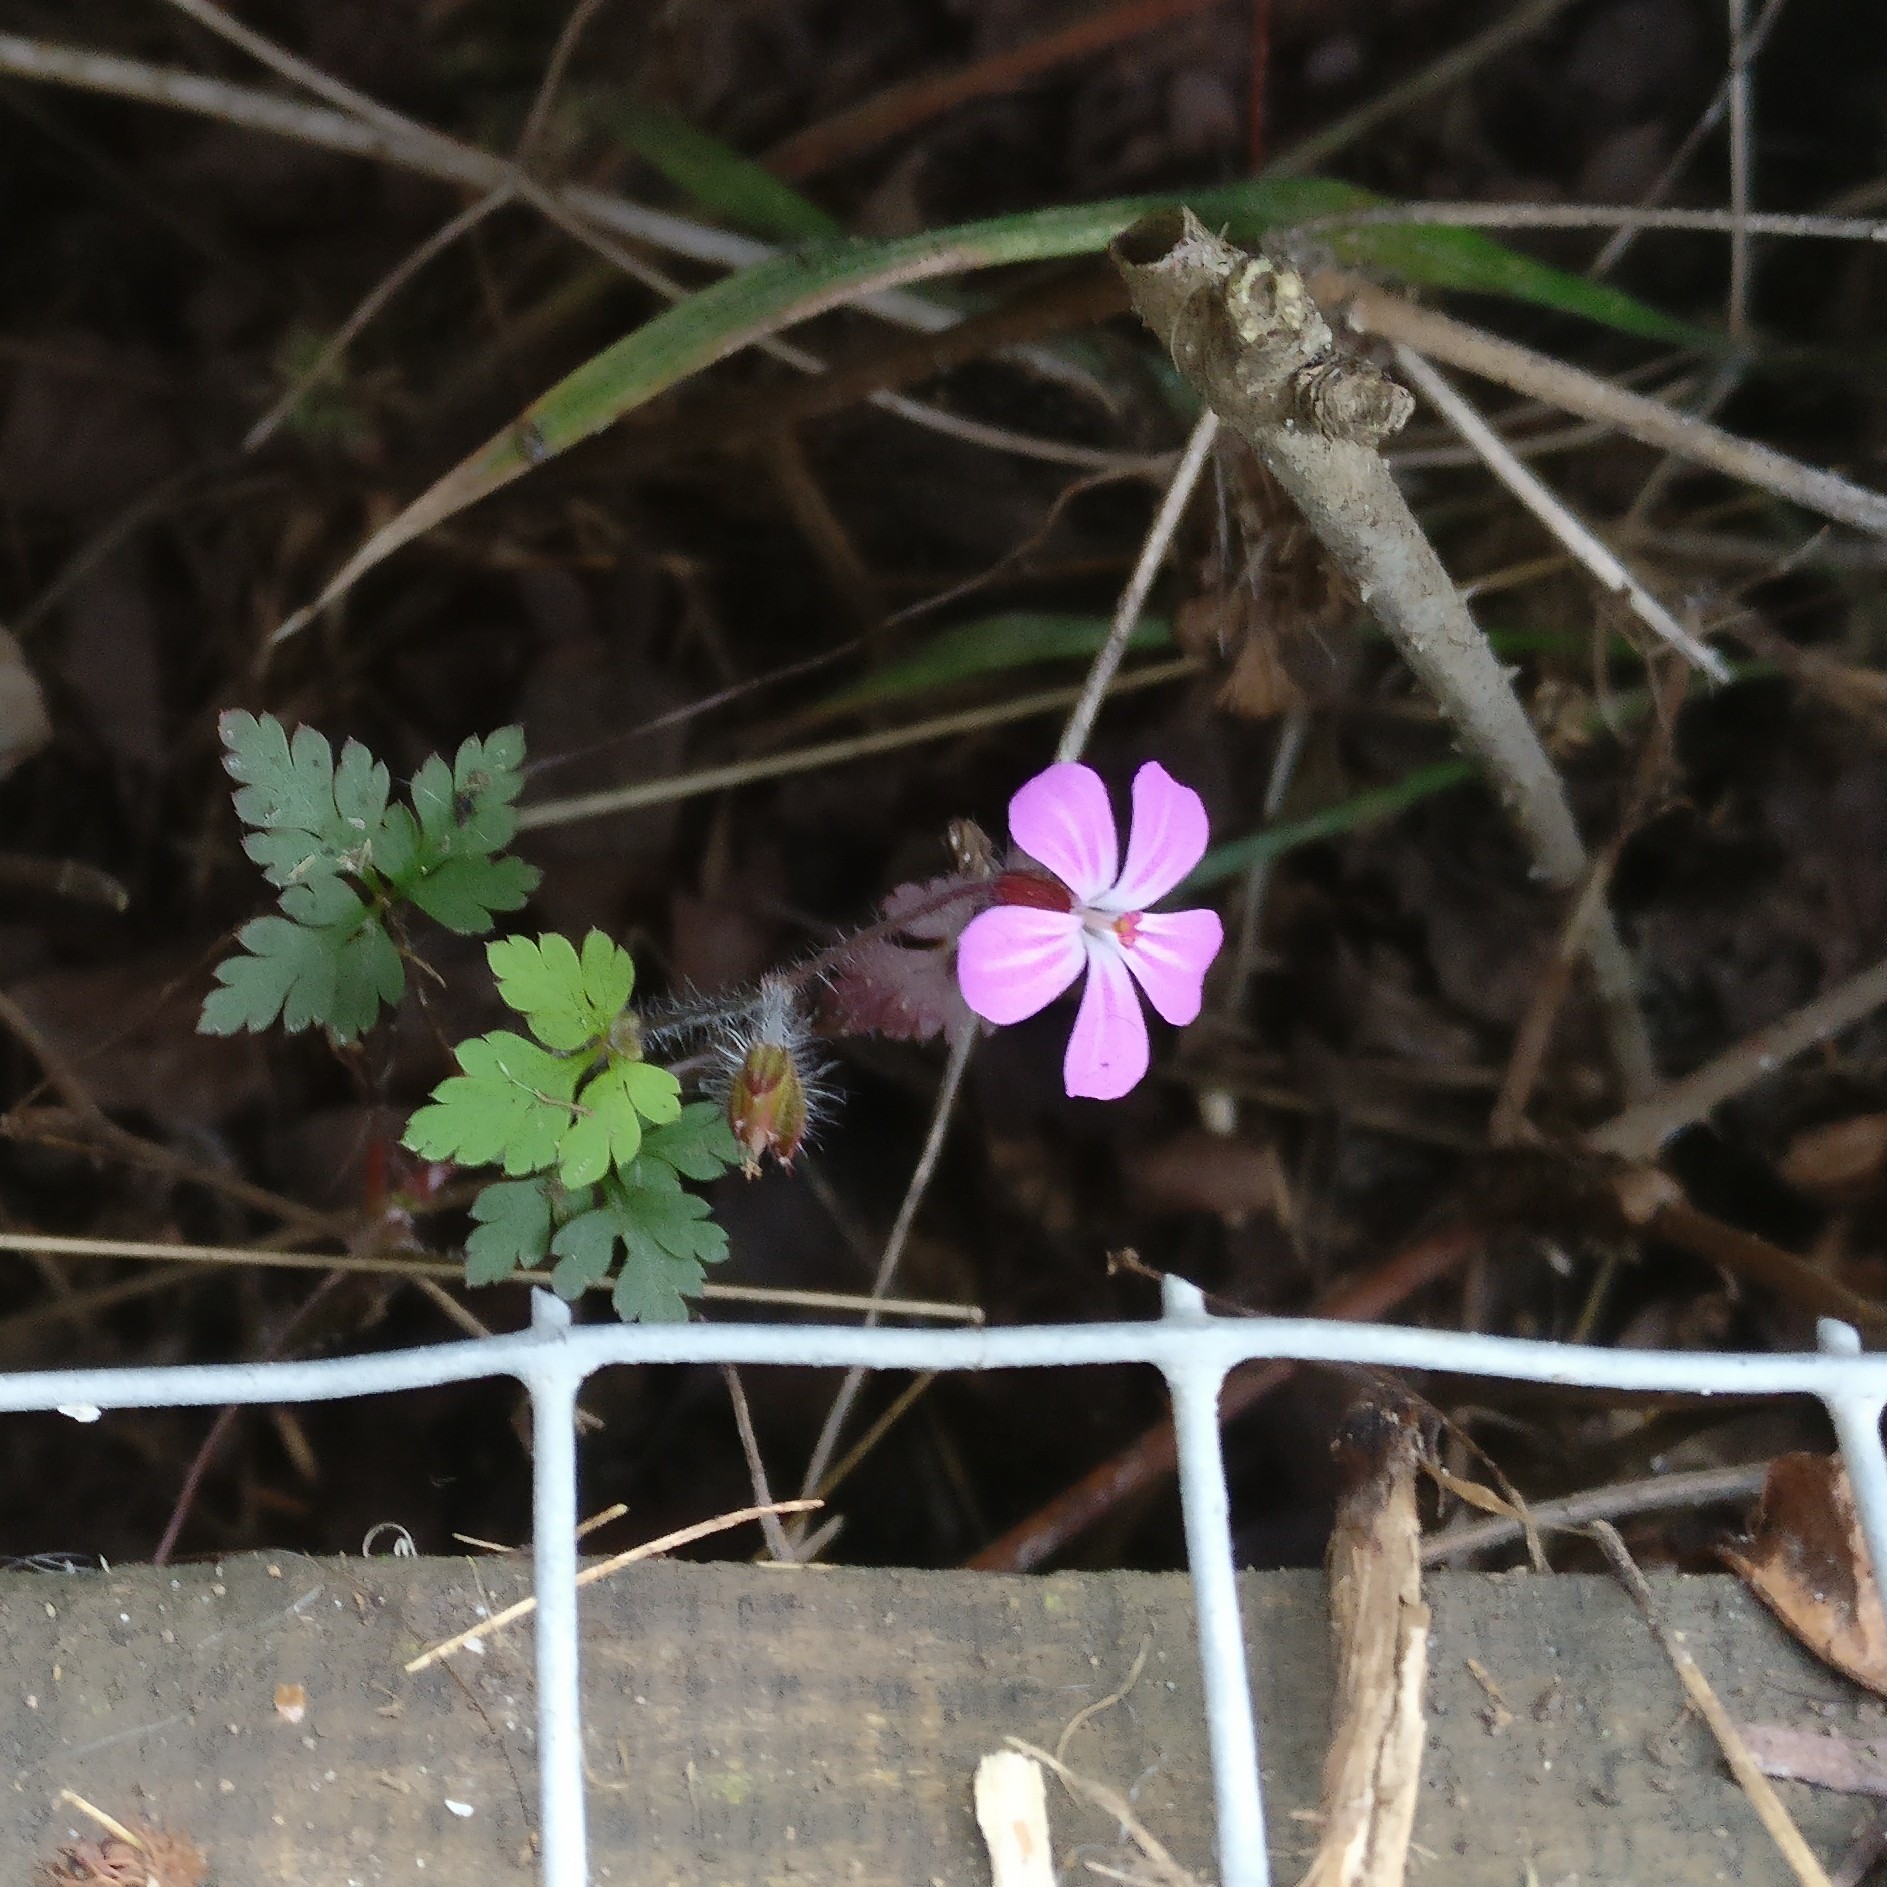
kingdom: Plantae
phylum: Tracheophyta
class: Magnoliopsida
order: Geraniales
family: Geraniaceae
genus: Geranium
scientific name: Geranium robertianum
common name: Herb-robert
